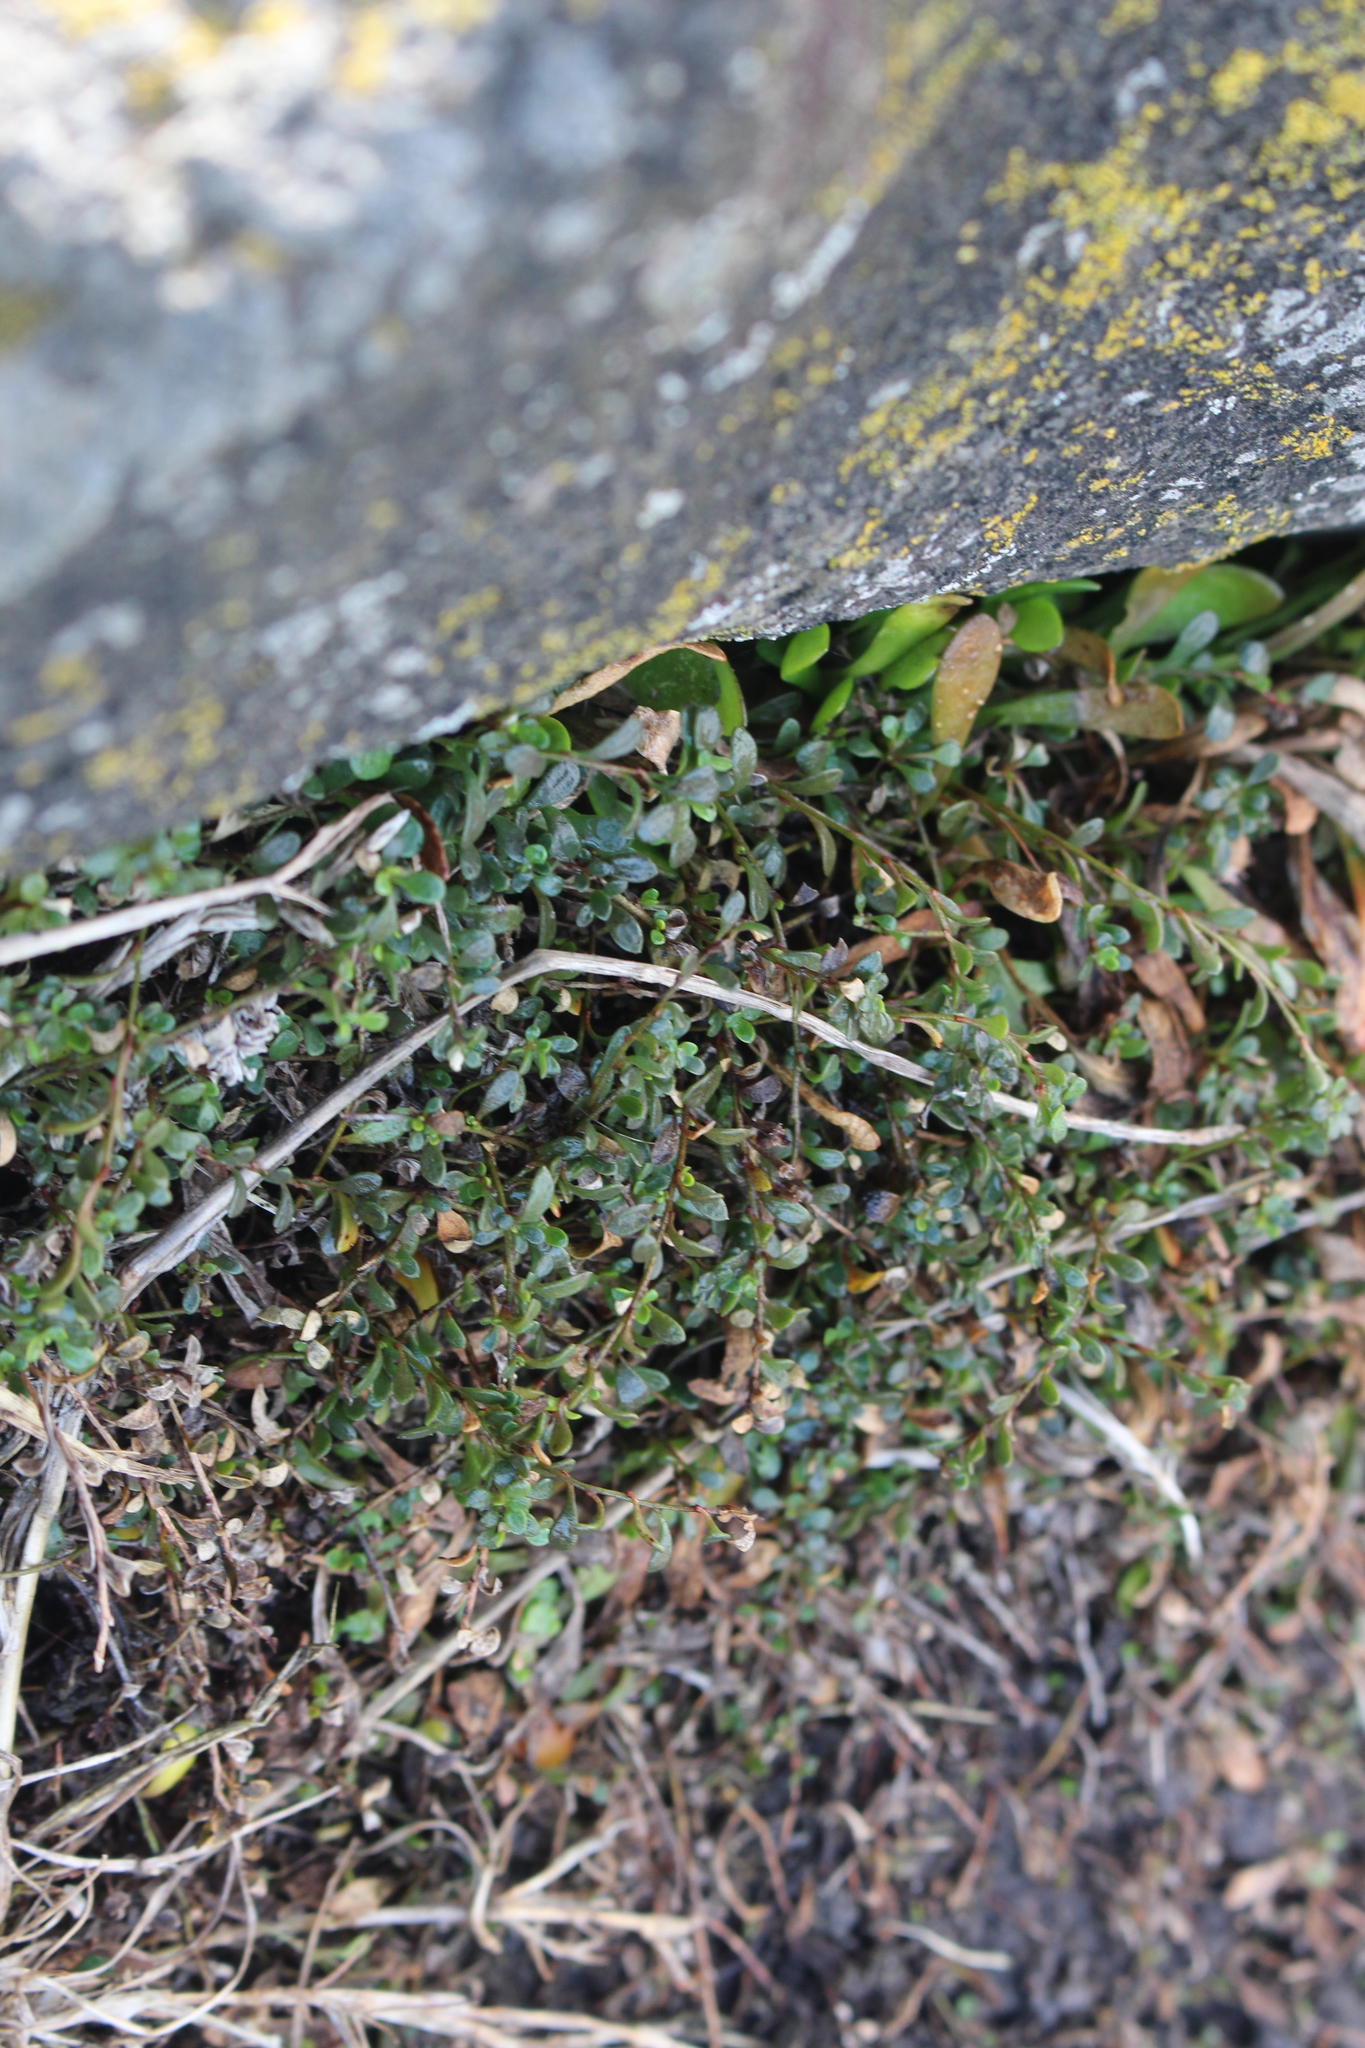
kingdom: Plantae
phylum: Tracheophyta
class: Magnoliopsida
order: Ericales
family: Primulaceae
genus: Samolus
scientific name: Samolus repens
